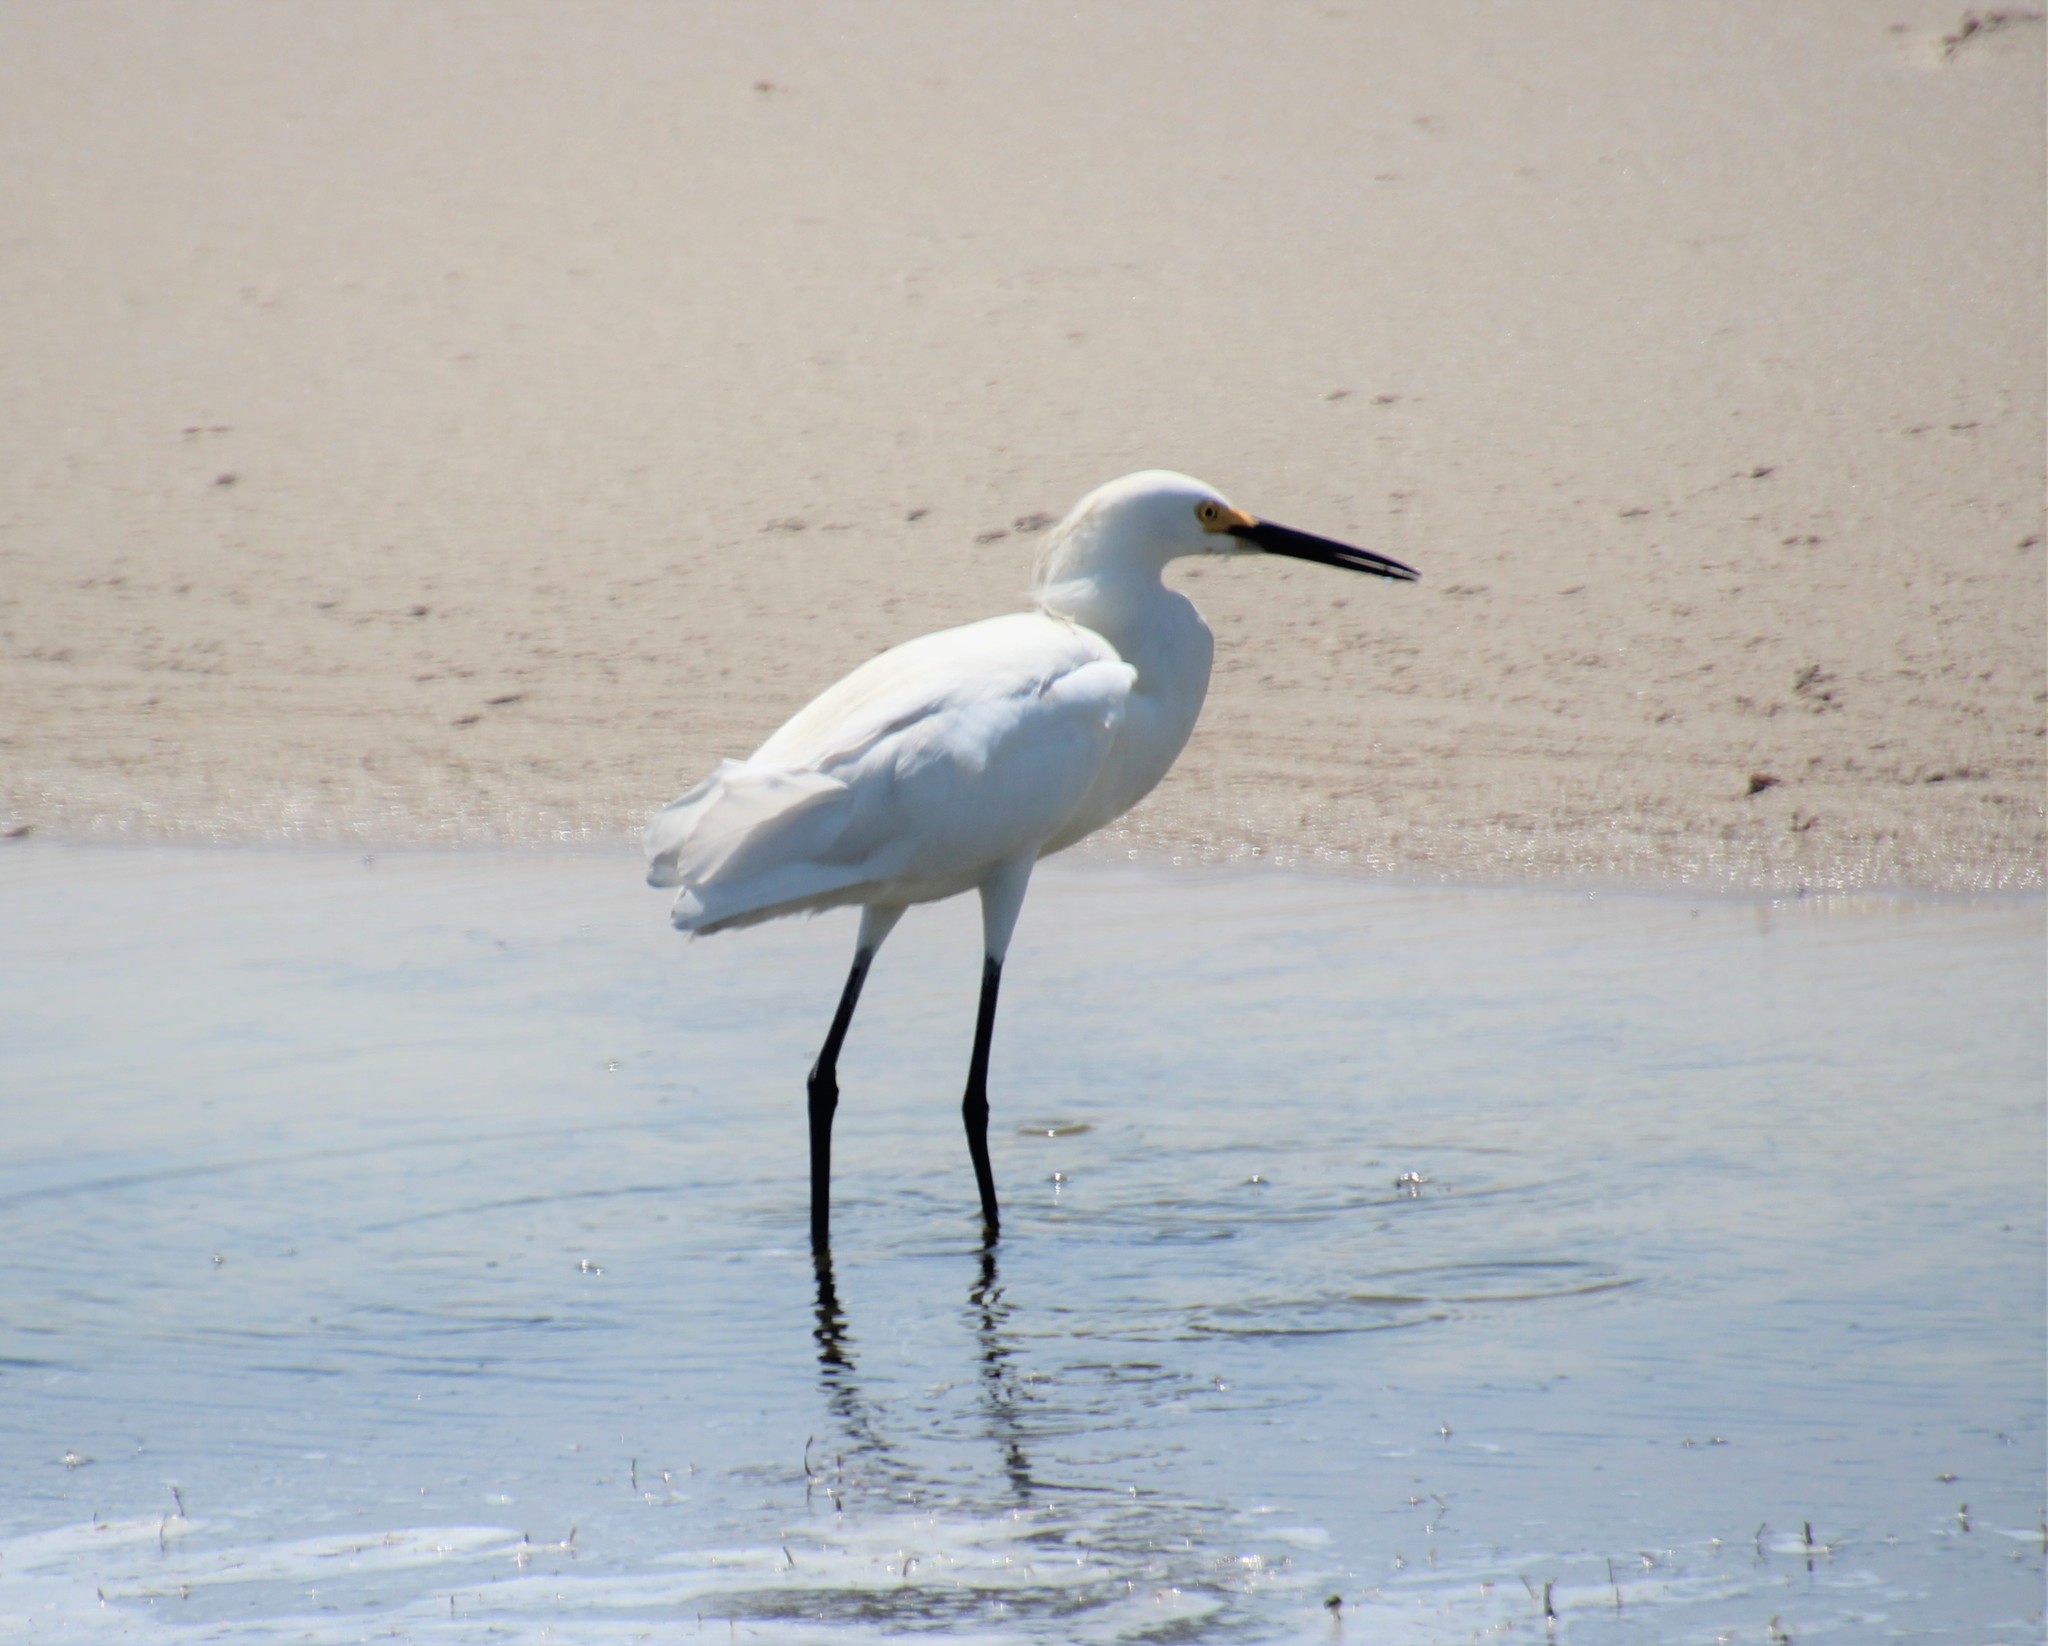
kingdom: Animalia
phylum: Chordata
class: Aves
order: Pelecaniformes
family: Ardeidae
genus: Egretta
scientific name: Egretta thula
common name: Snowy egret
